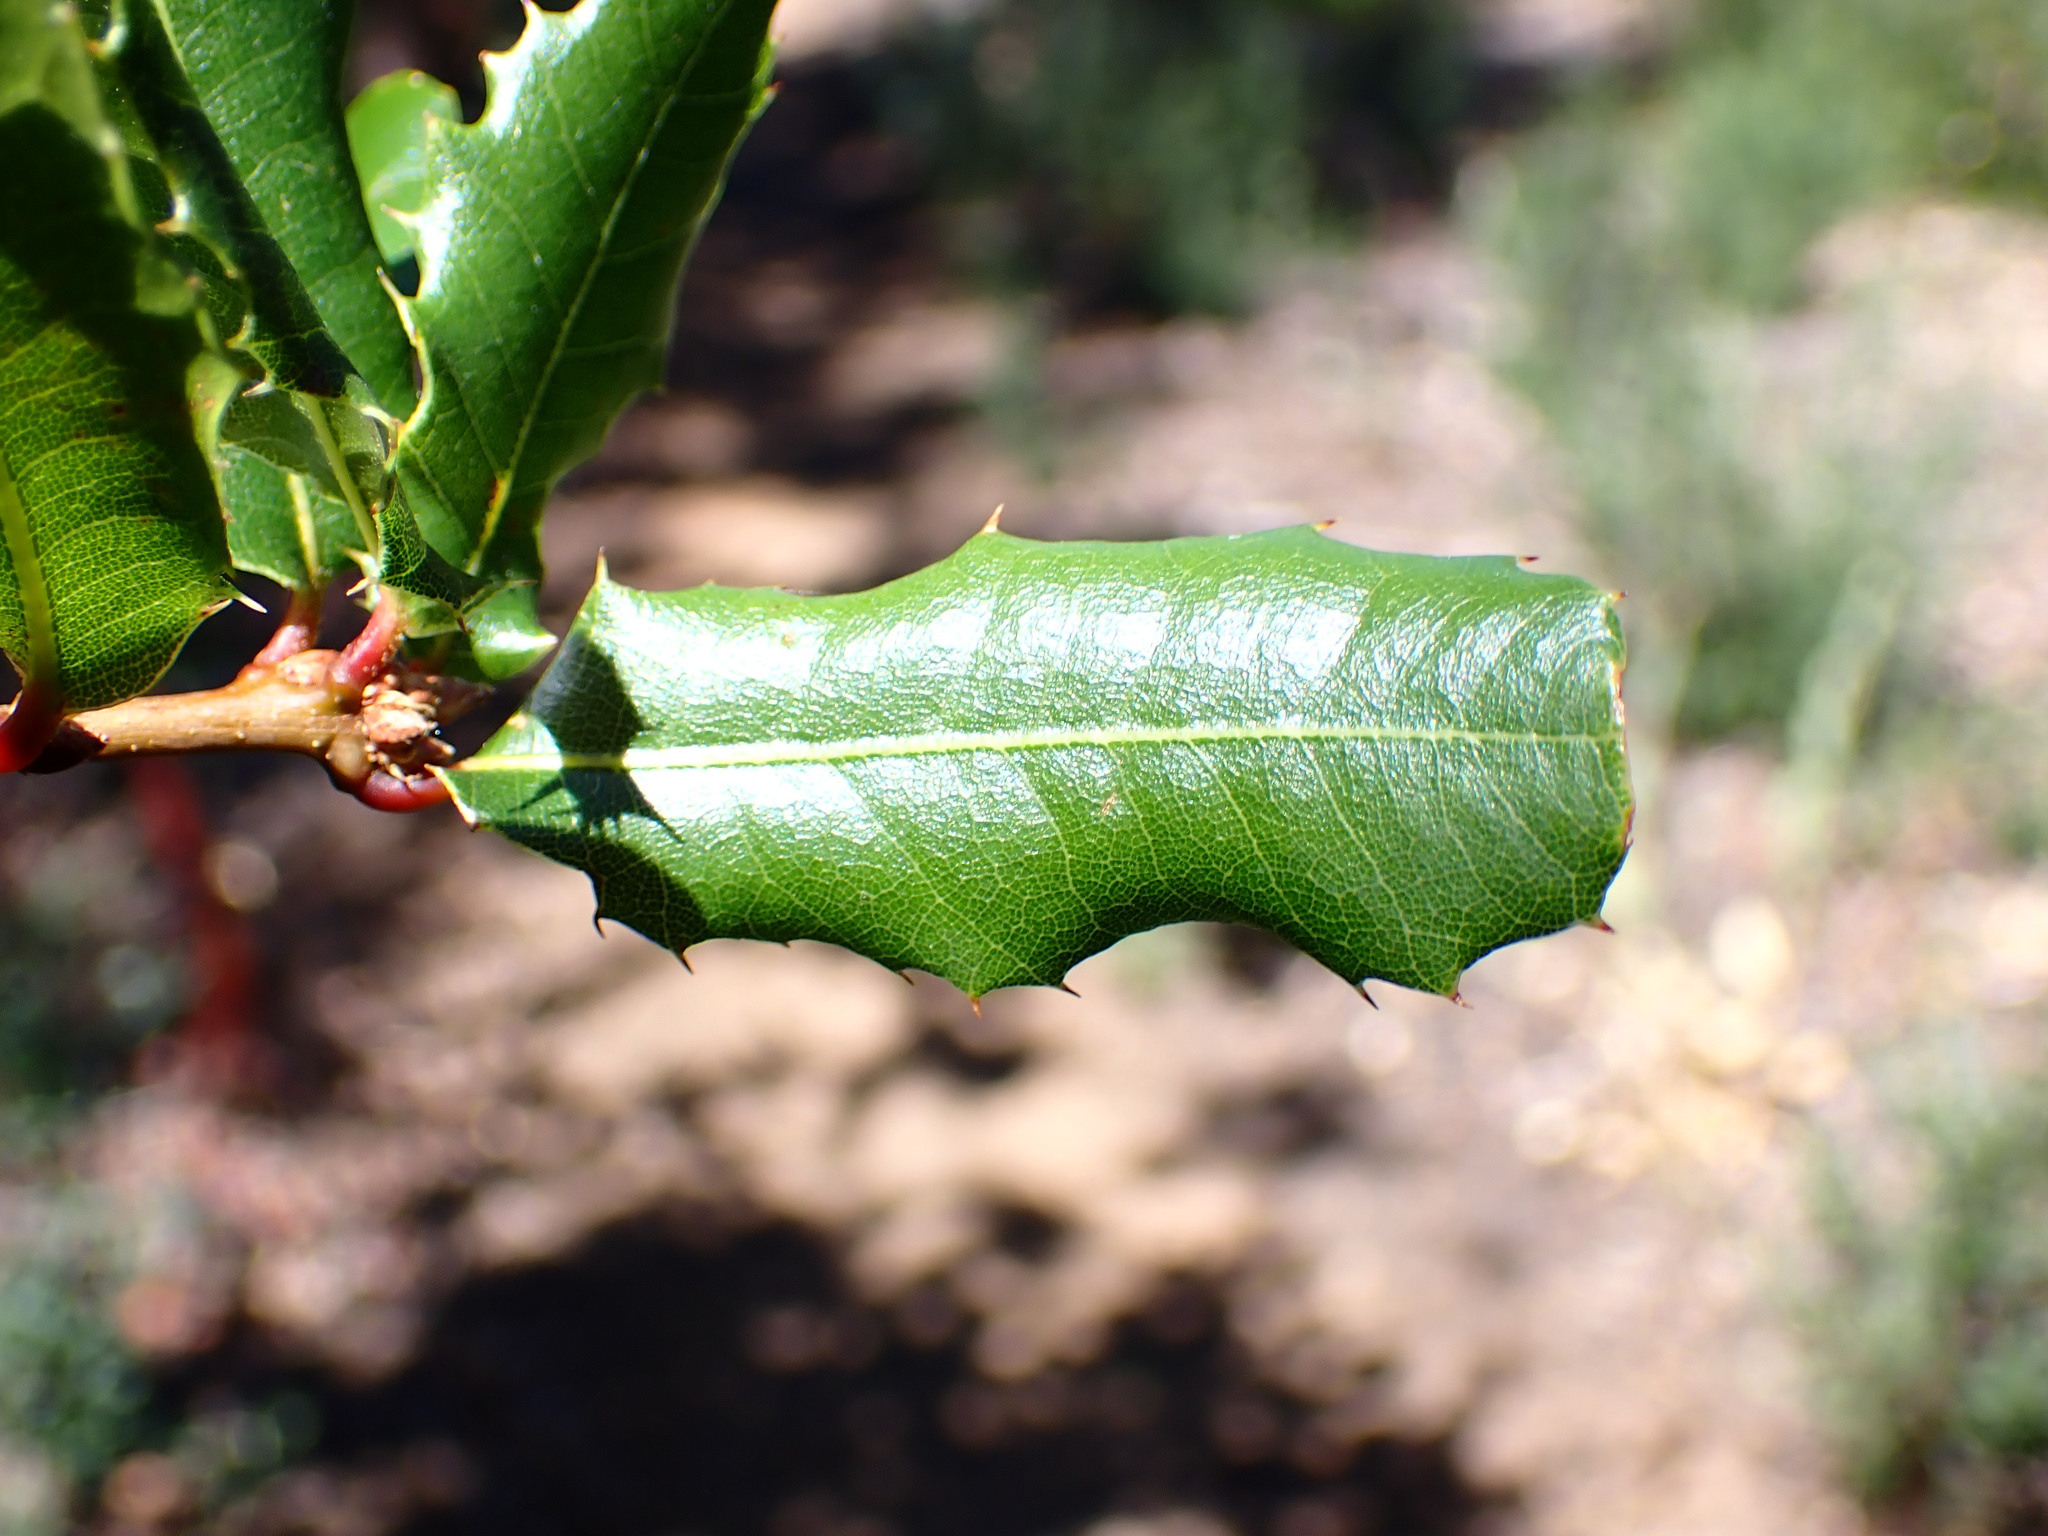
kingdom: Plantae
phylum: Tracheophyta
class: Magnoliopsida
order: Fagales
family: Fagaceae
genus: Quercus
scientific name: Quercus parvula
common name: Santa cruz island oak
